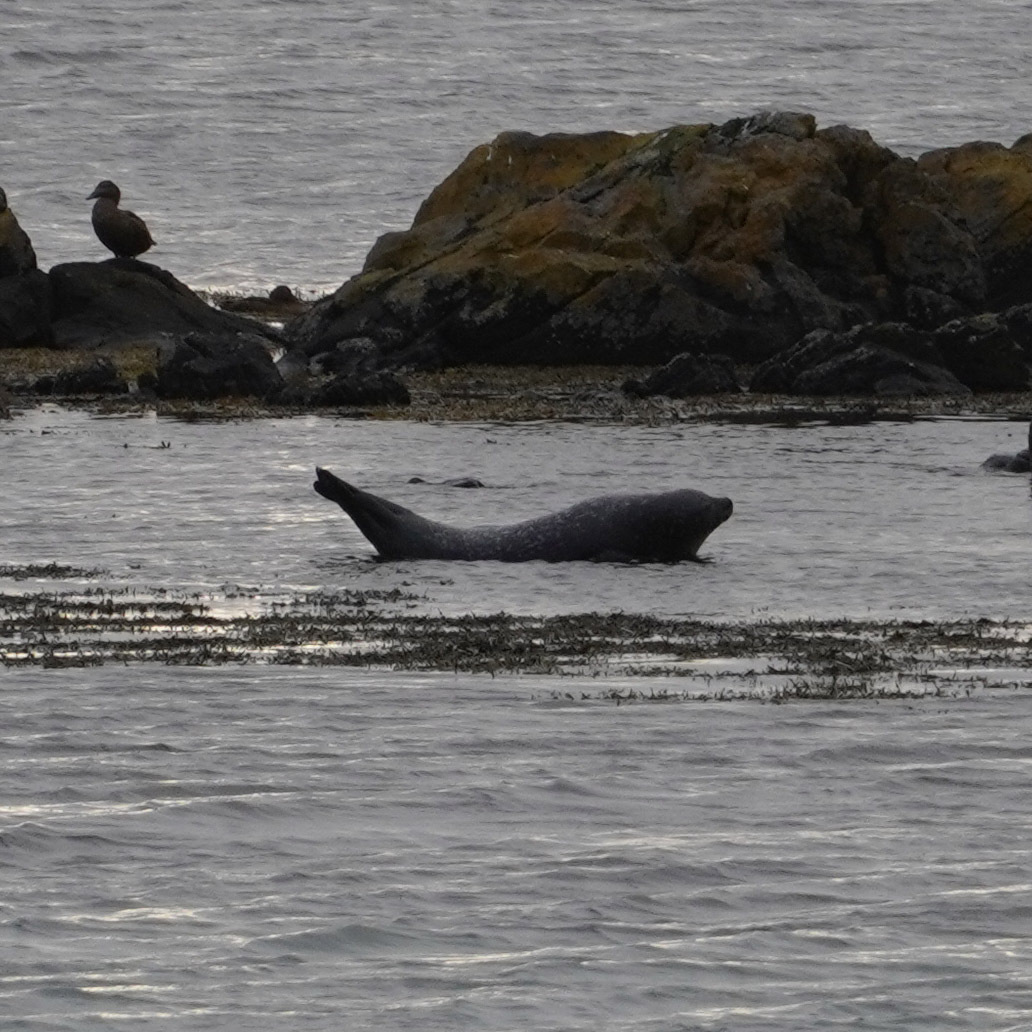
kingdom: Animalia
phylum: Chordata
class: Mammalia
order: Carnivora
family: Phocidae
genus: Phoca
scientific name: Phoca vitulina
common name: Harbor seal
